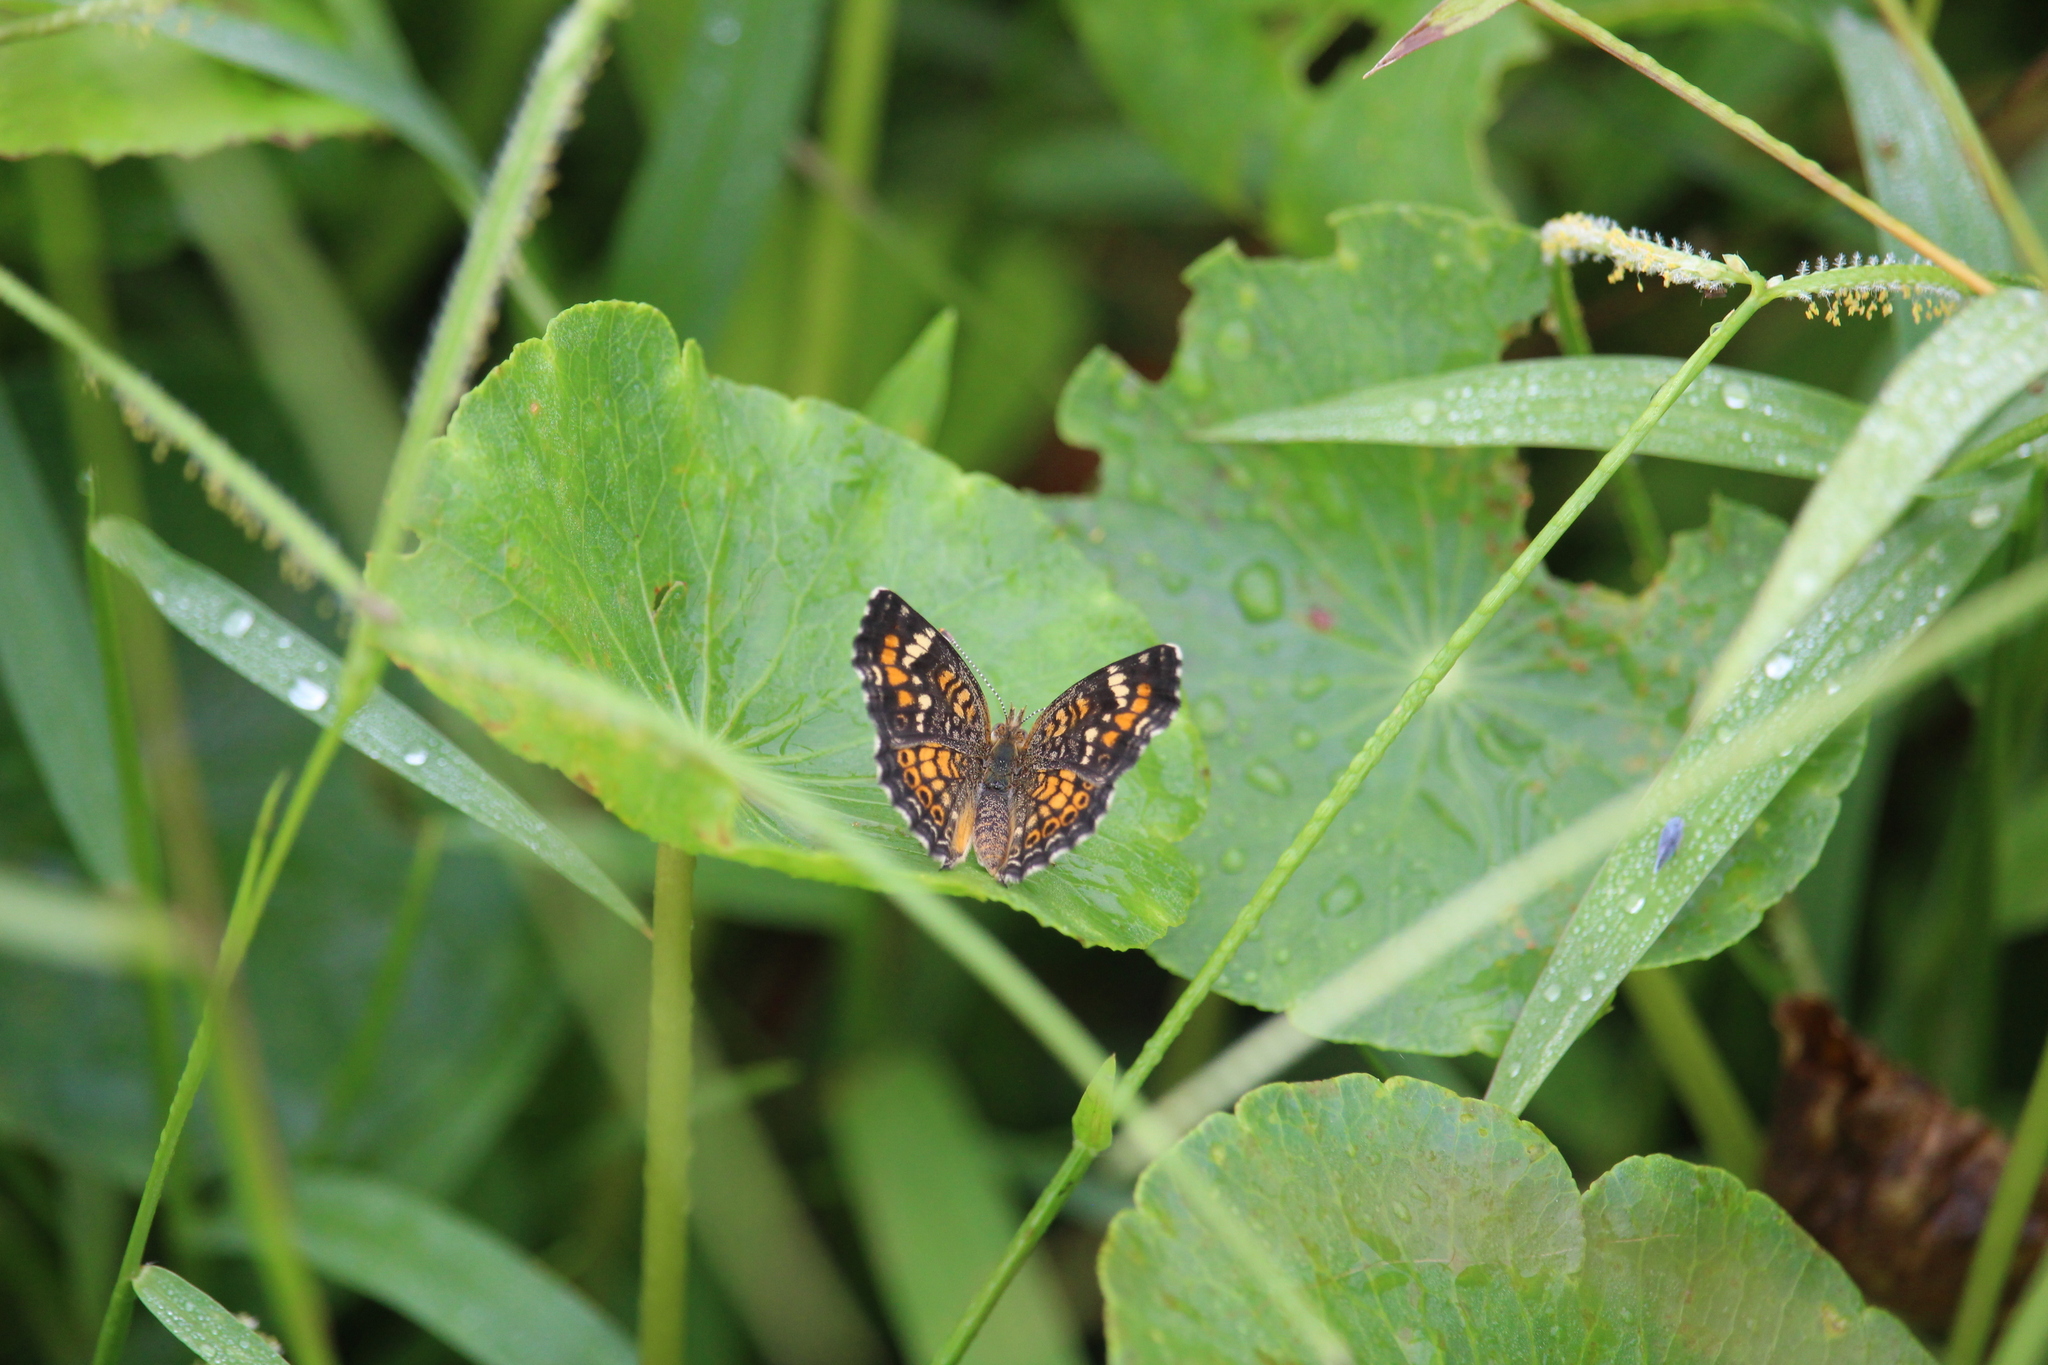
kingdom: Animalia
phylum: Arthropoda
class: Insecta
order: Lepidoptera
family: Nymphalidae
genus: Phyciodes
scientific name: Phyciodes phaon
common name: Phaon crescent
